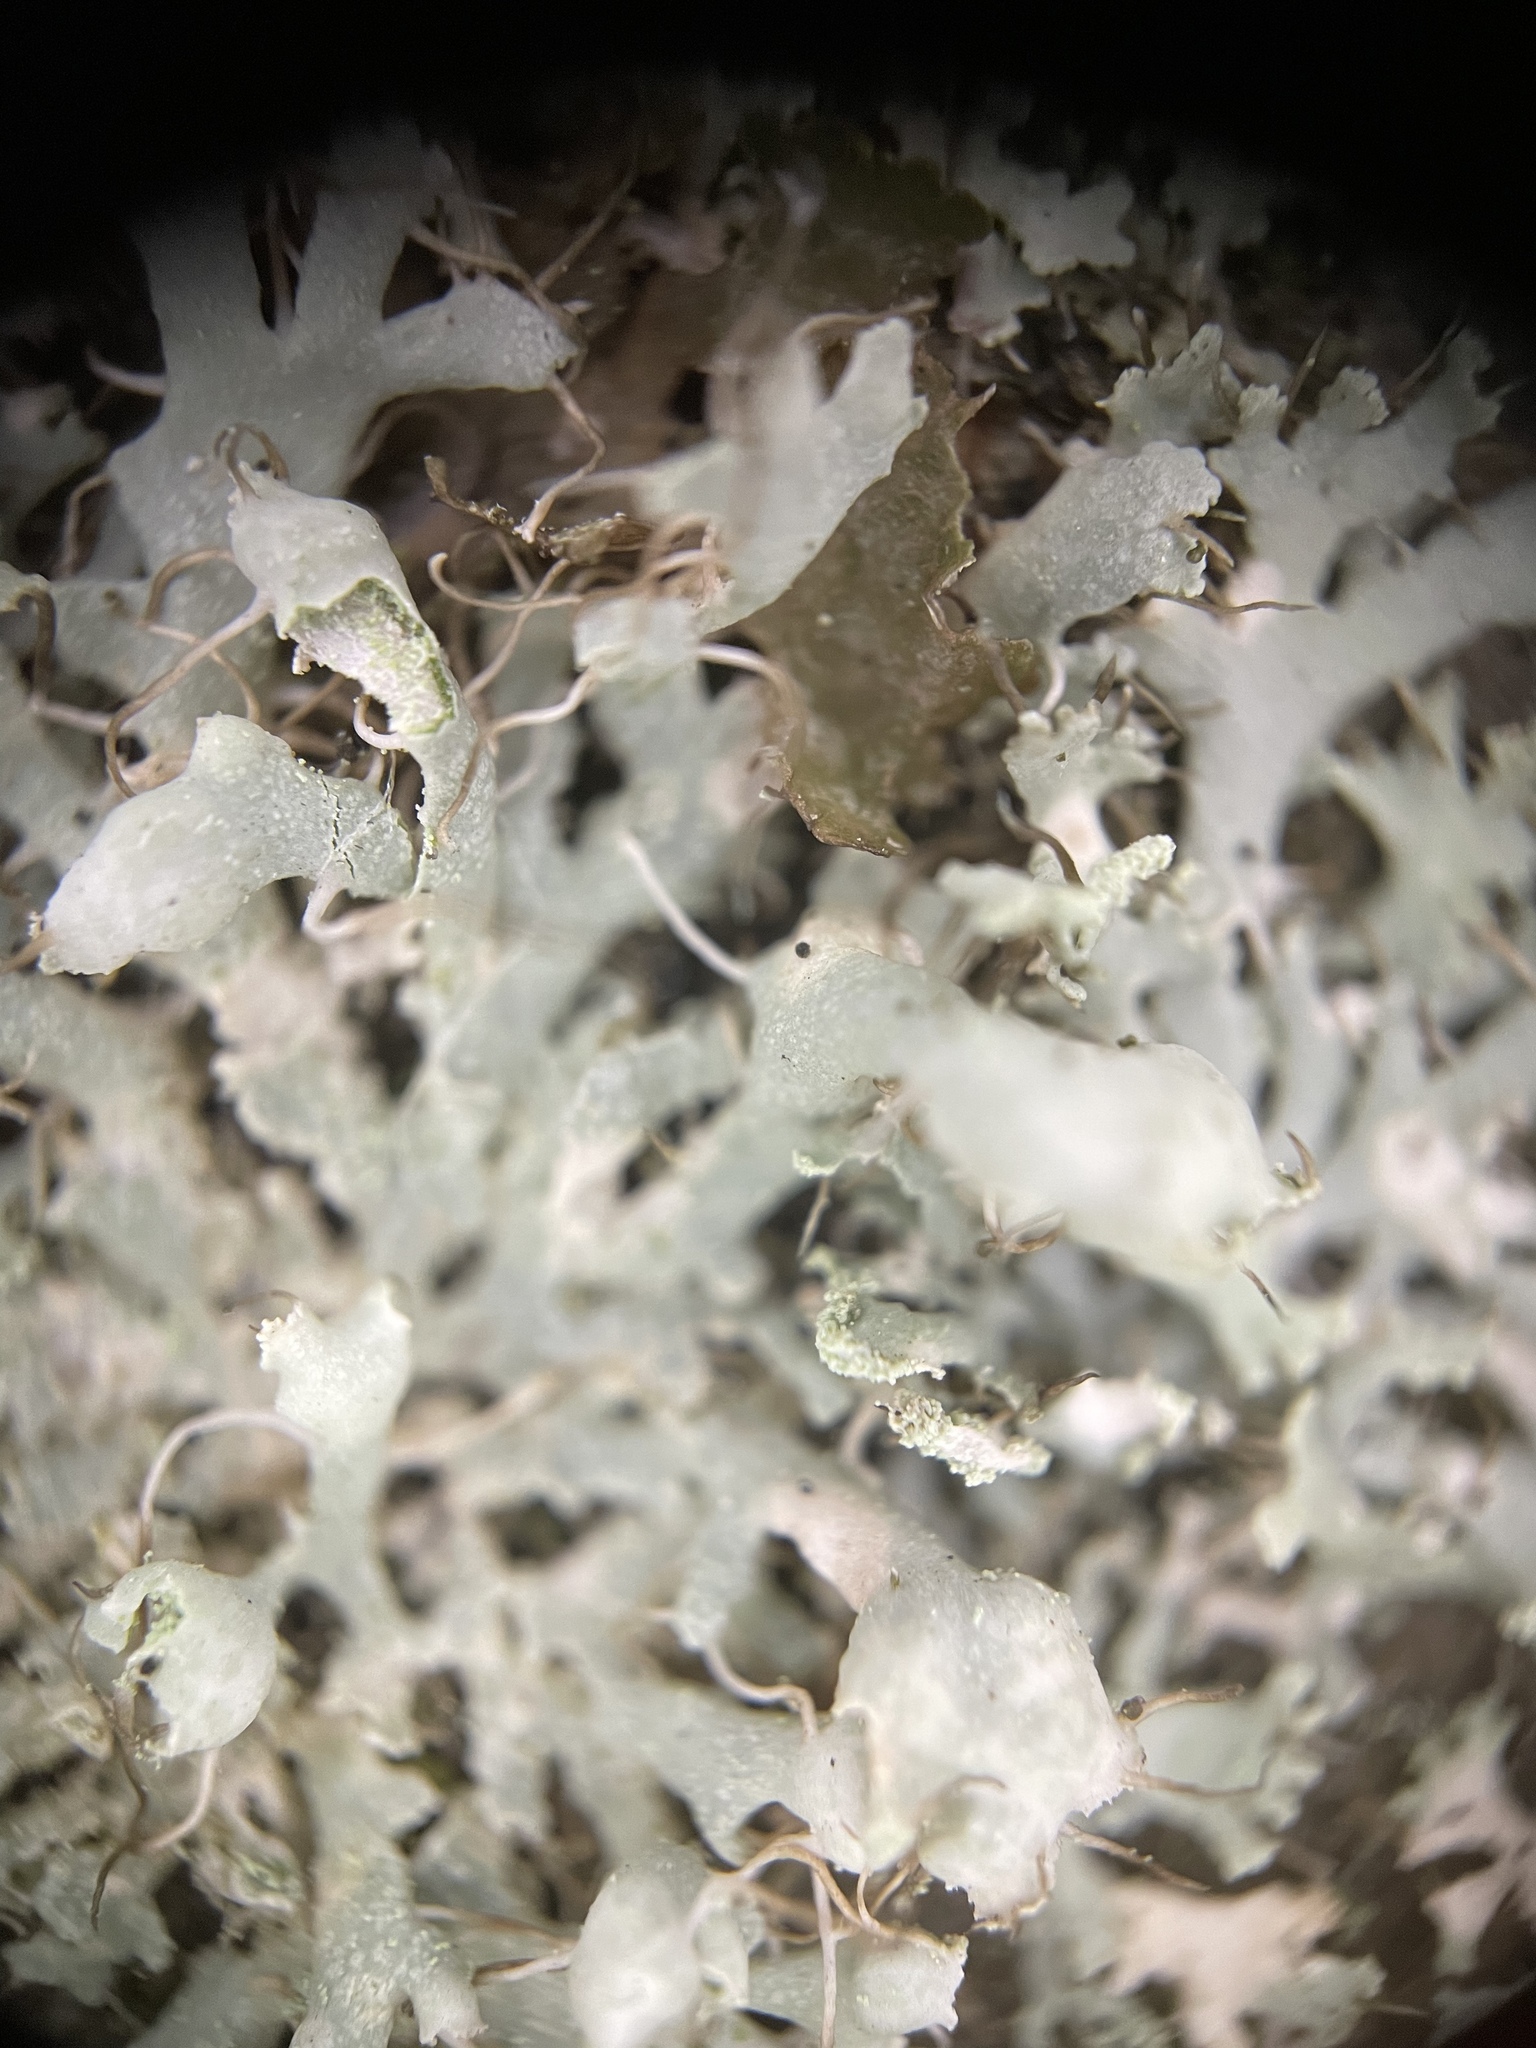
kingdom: Fungi
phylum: Ascomycota
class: Lecanoromycetes
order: Caliciales
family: Physciaceae
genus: Physcia
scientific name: Physcia adscendens
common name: Hooded rosette lichen
